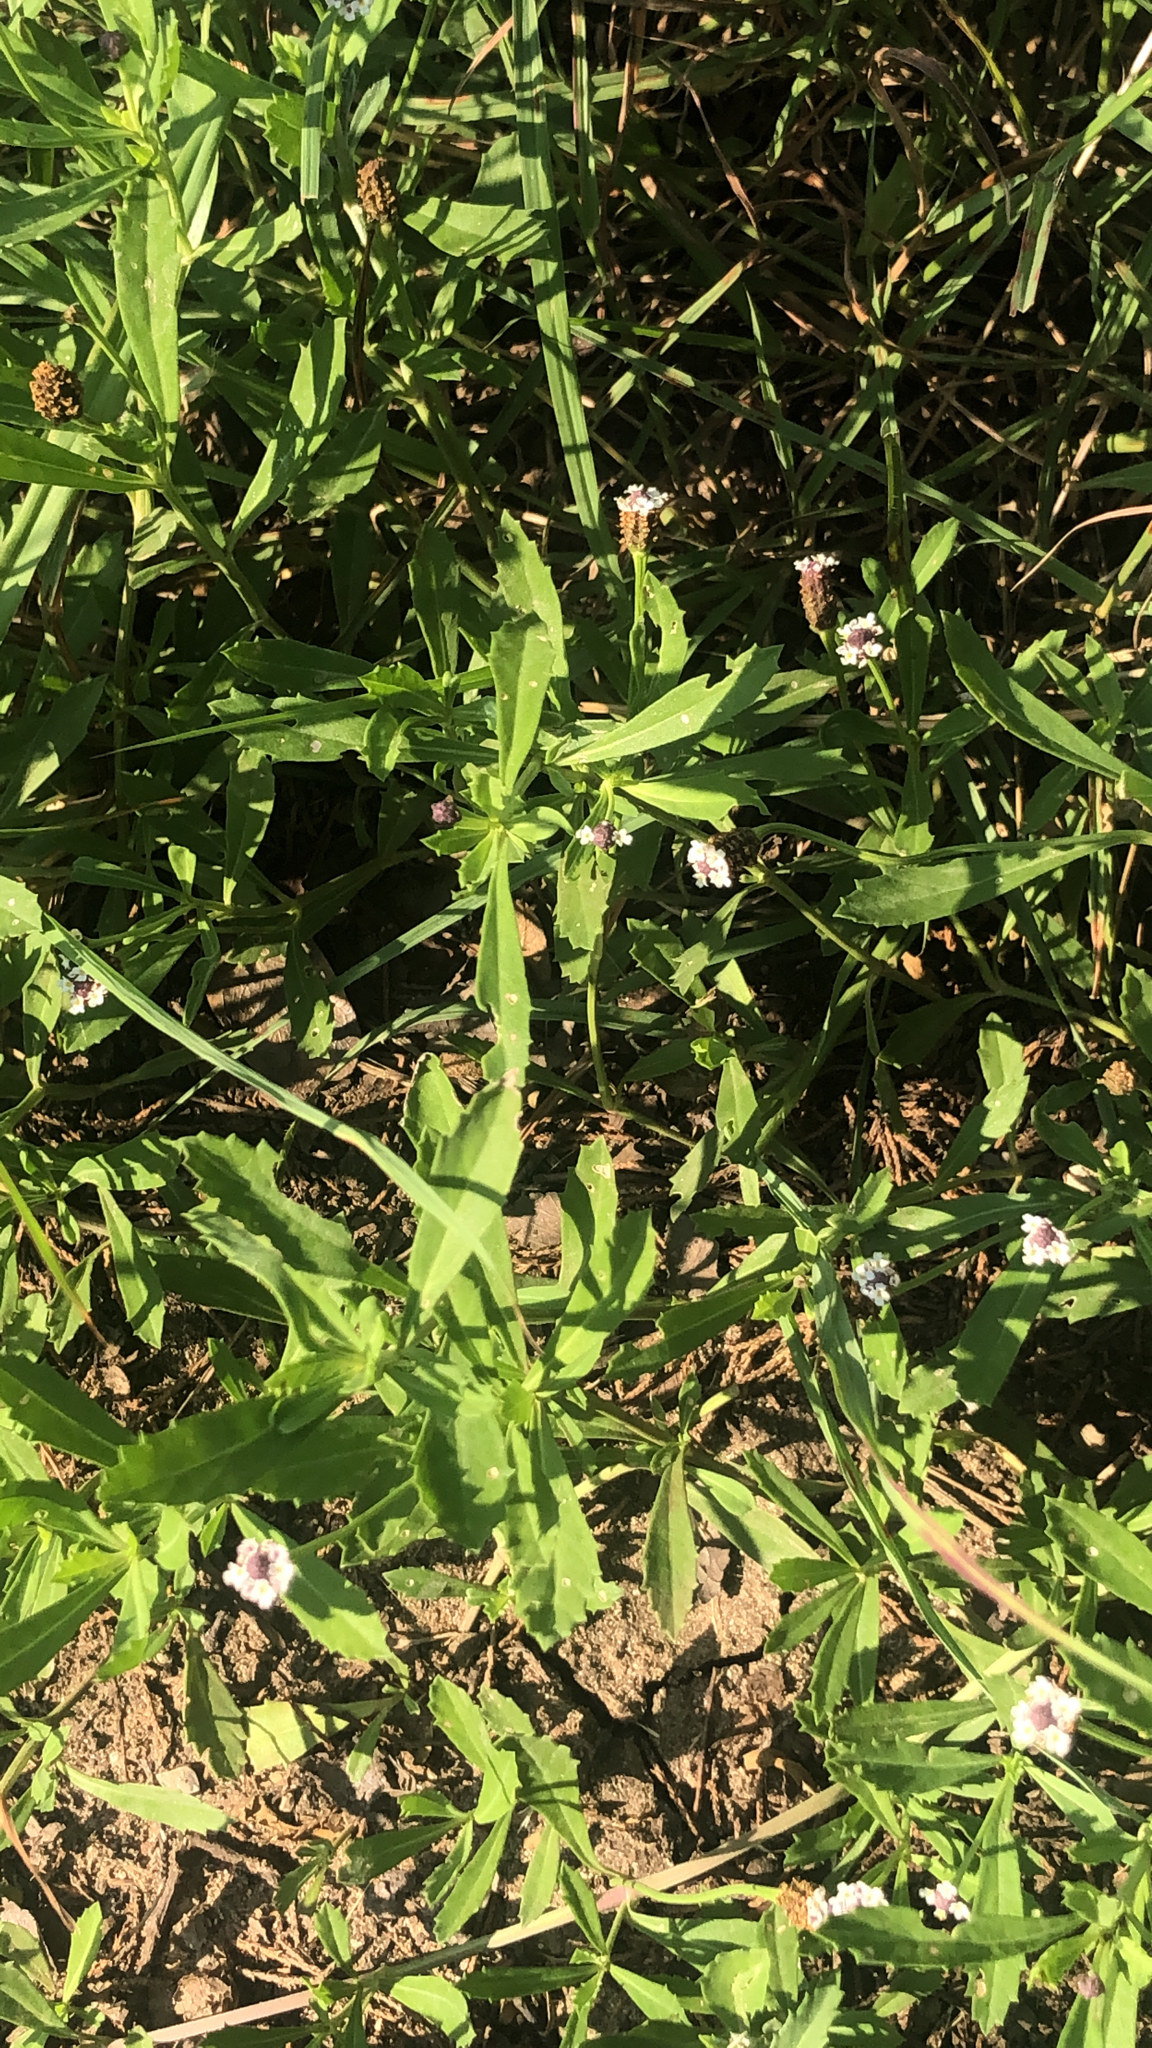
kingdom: Plantae
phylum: Tracheophyta
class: Magnoliopsida
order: Lamiales
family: Verbenaceae
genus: Phyla
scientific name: Phyla nodiflora
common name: Frogfruit
